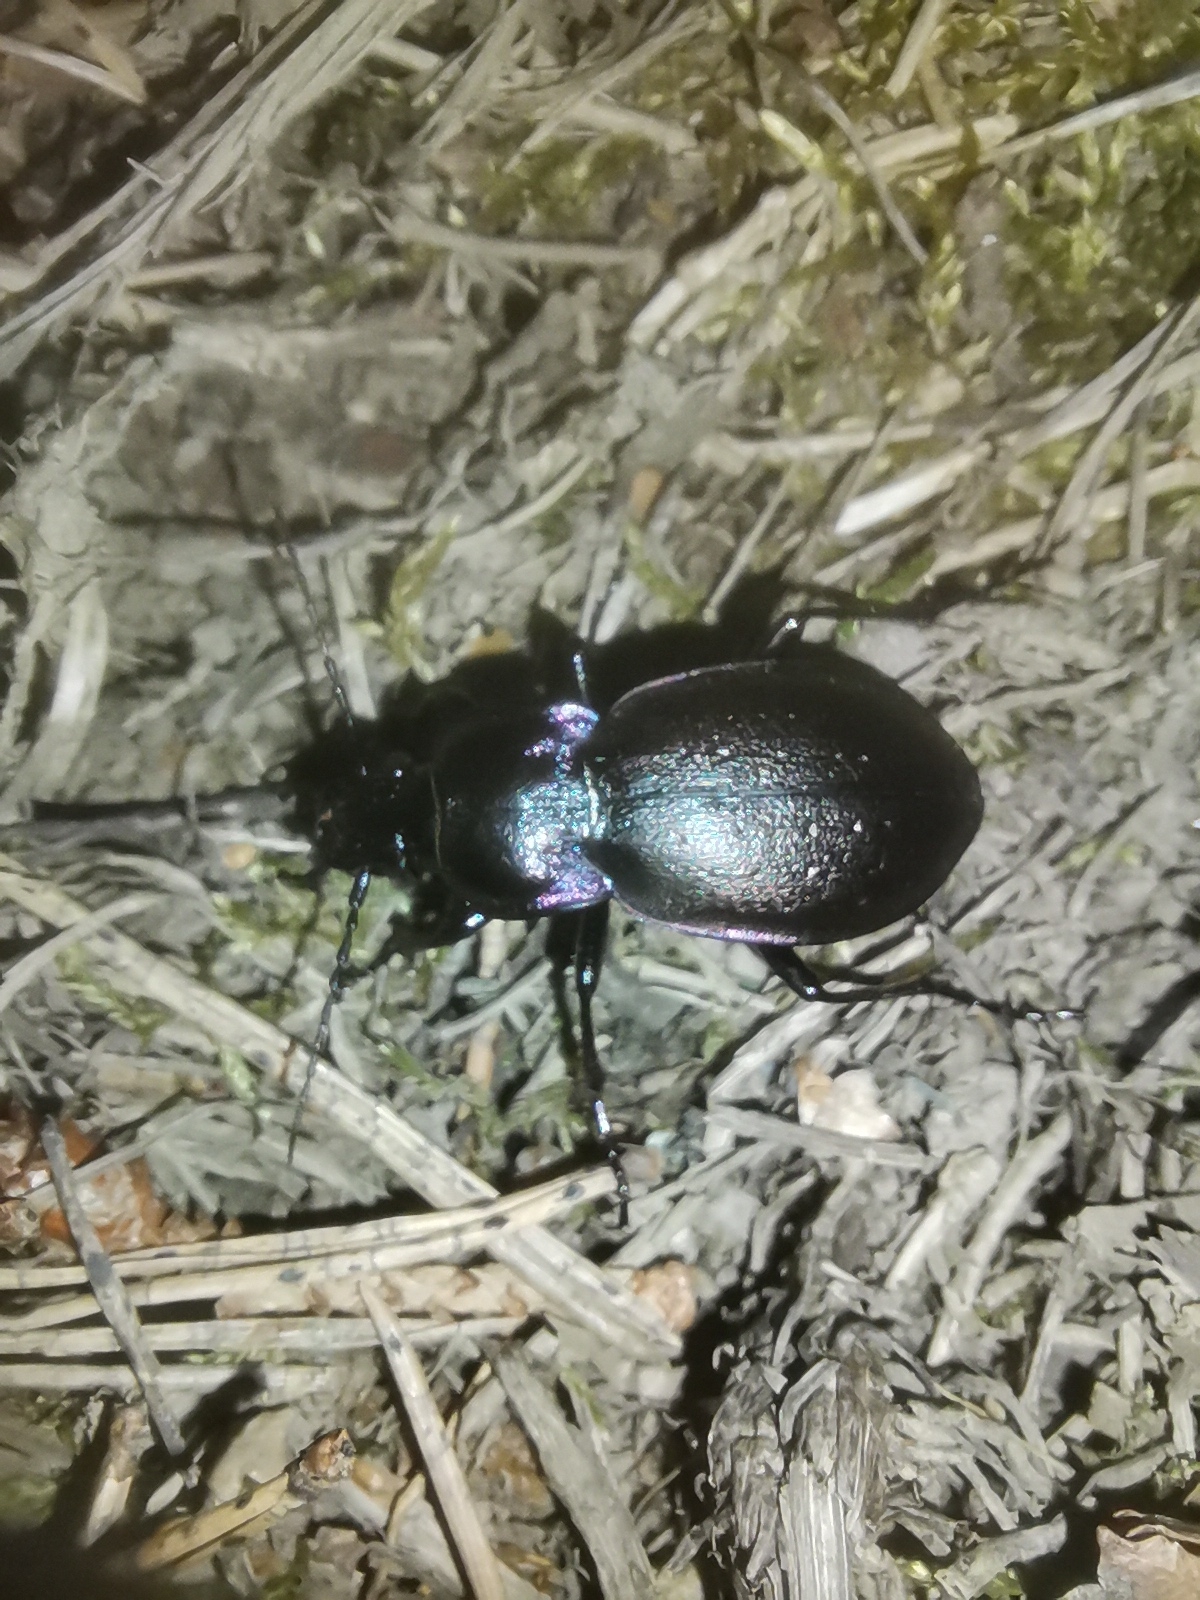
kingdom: Animalia
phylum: Arthropoda
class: Insecta
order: Coleoptera
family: Carabidae
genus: Carabus
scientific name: Carabus nemoralis
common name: European ground beetle
